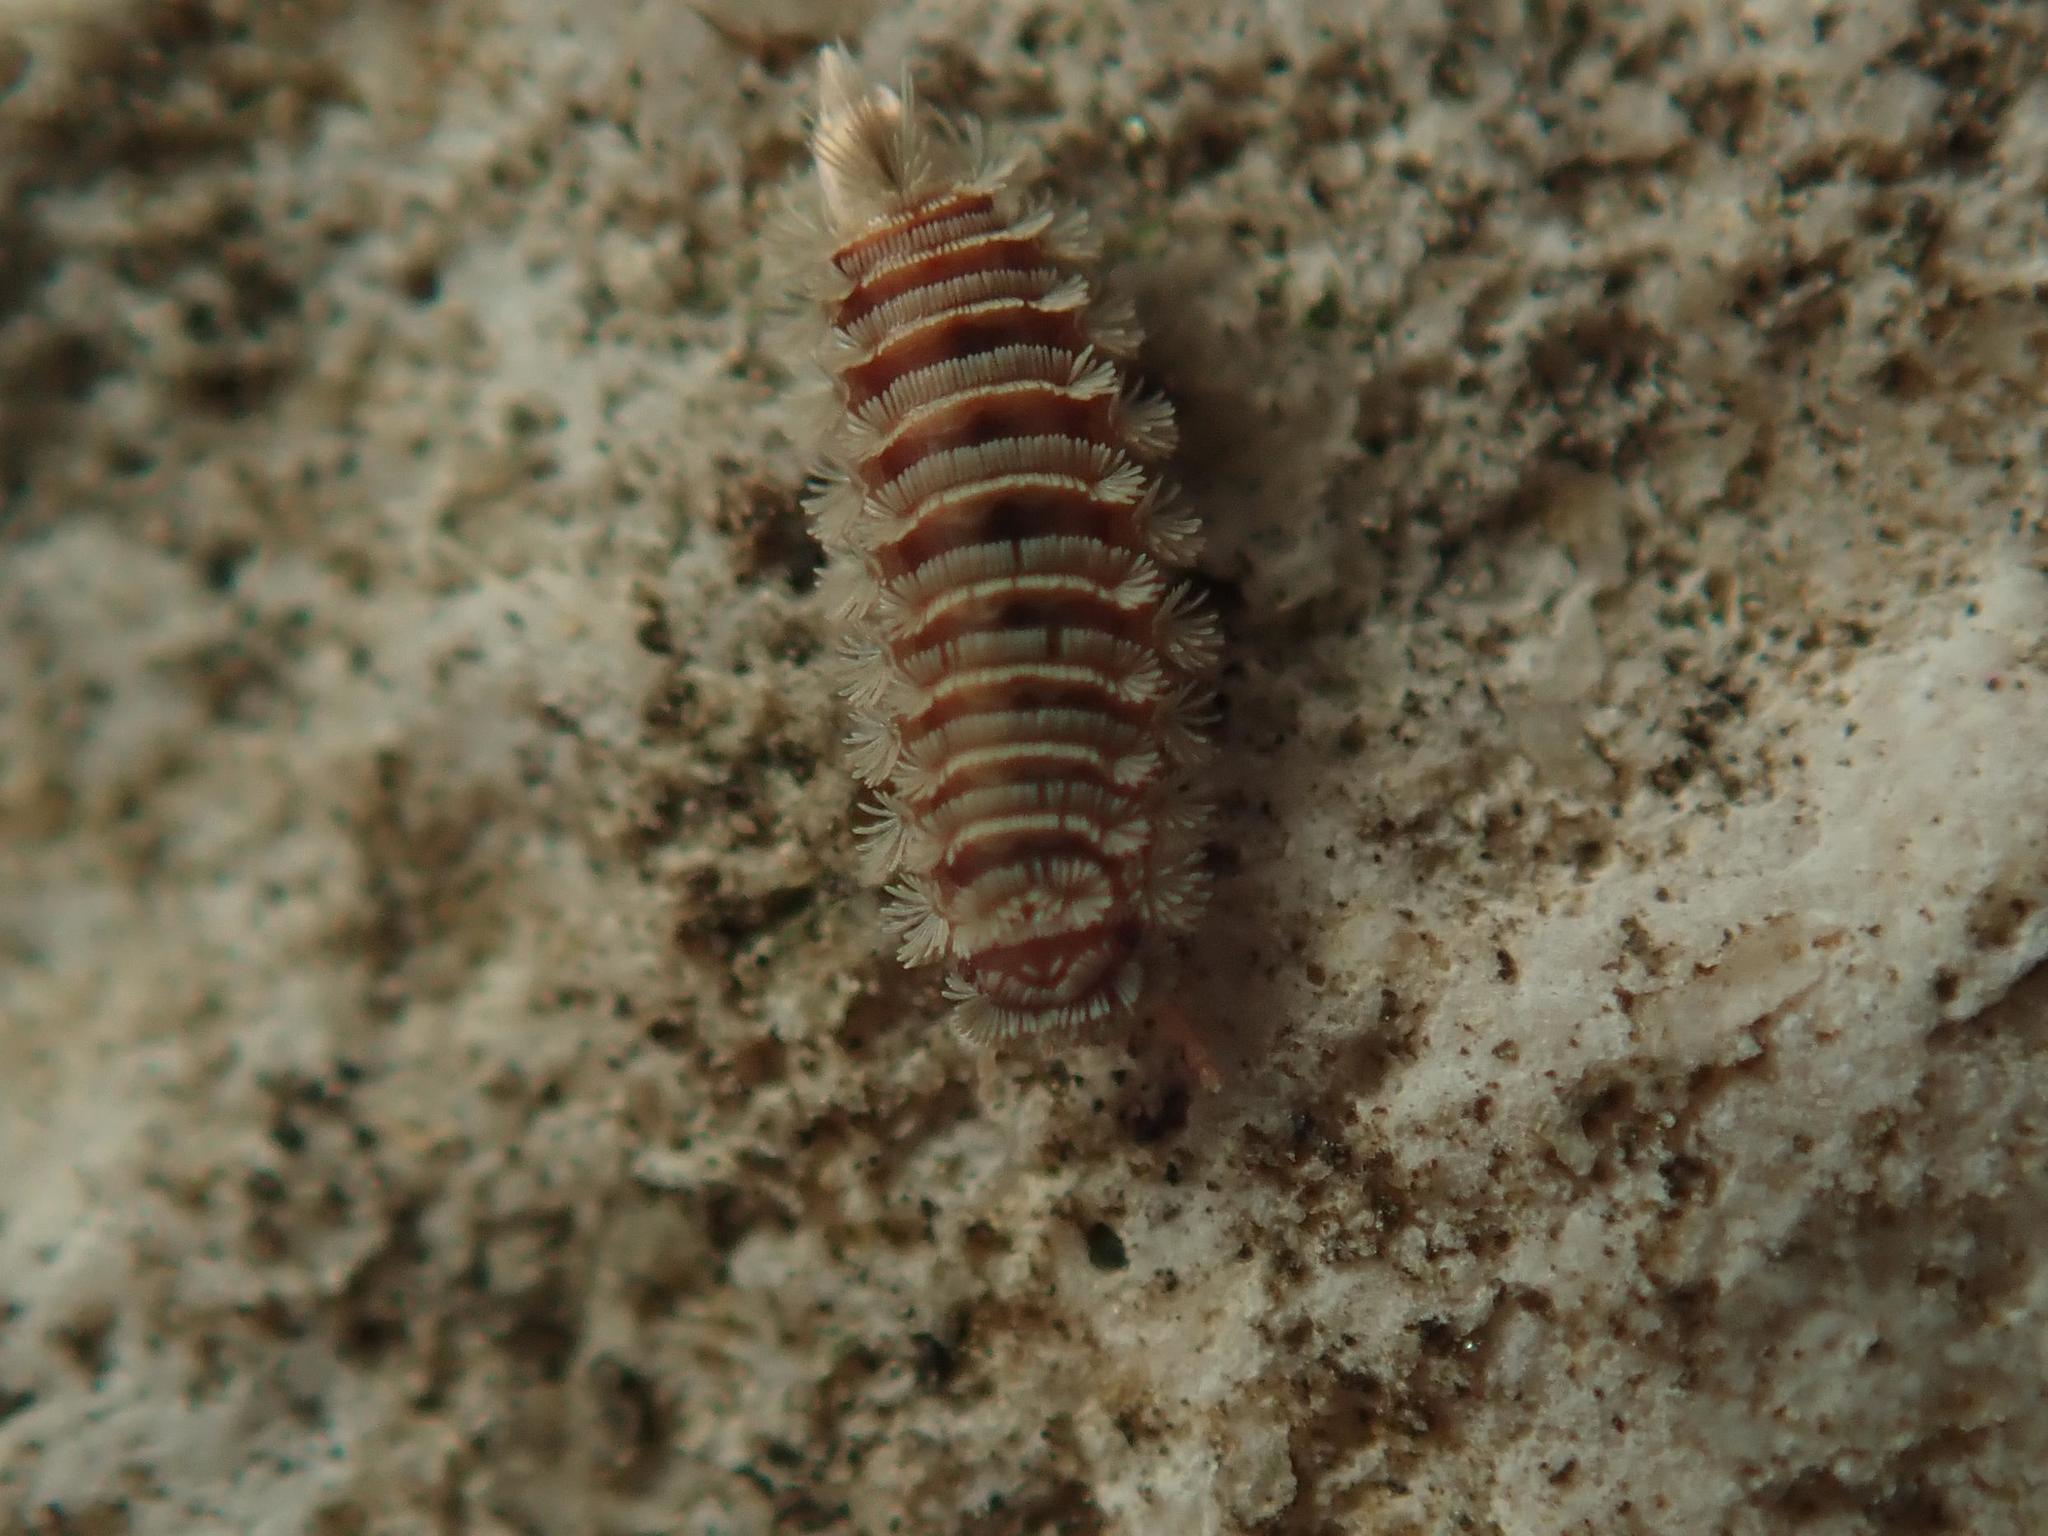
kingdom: Animalia
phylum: Arthropoda
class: Diplopoda
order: Polyxenida
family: Polyxenidae
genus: Polyxenus
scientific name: Polyxenus lagurus
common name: Bristly millipede
